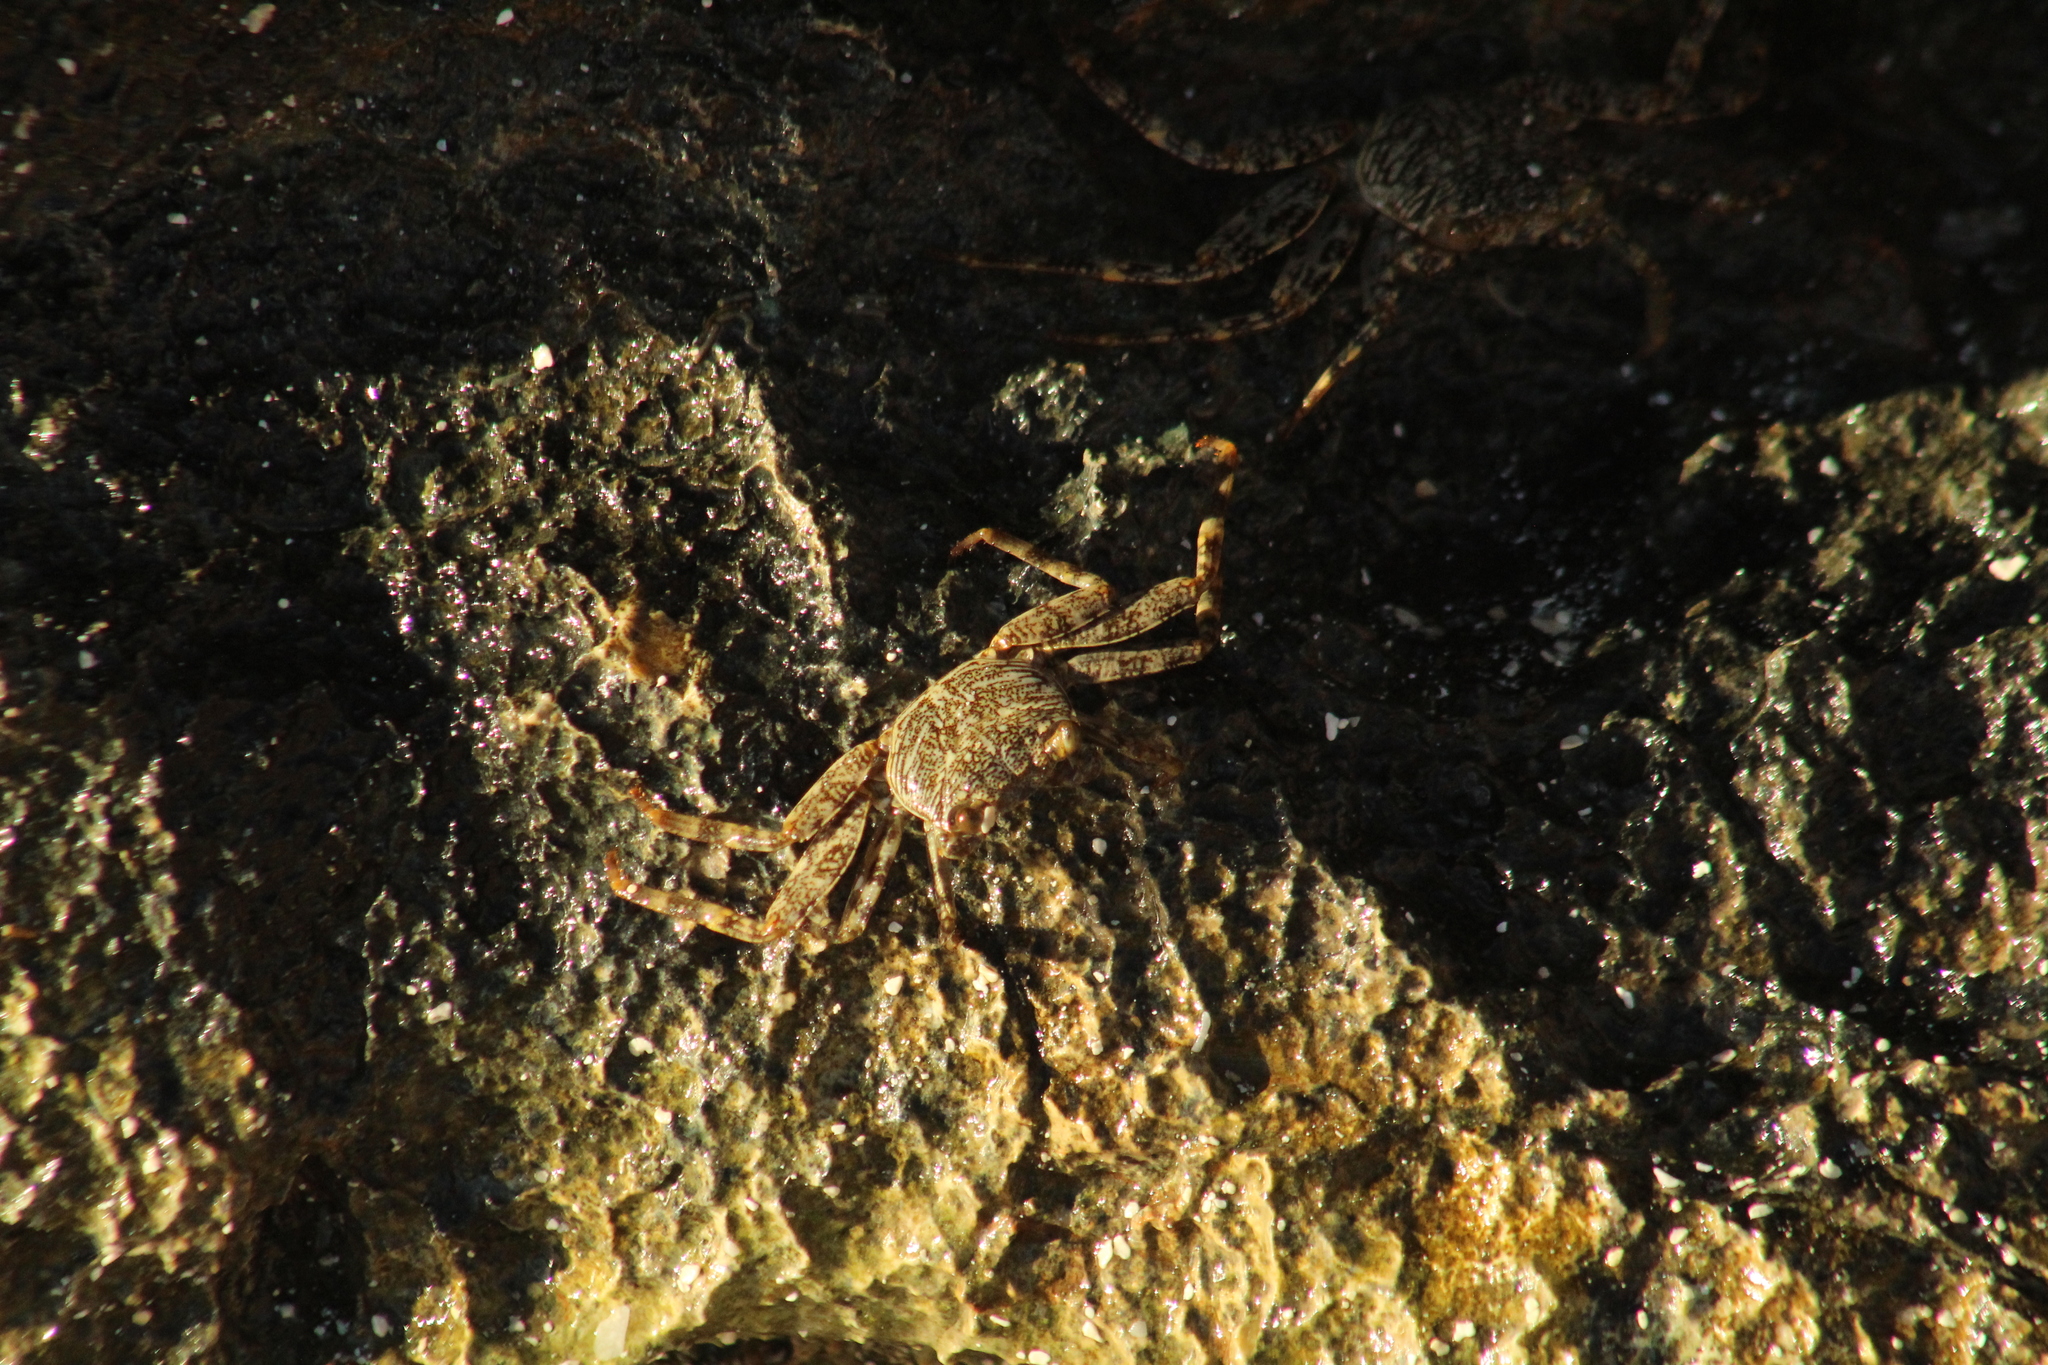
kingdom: Animalia
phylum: Arthropoda
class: Malacostraca
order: Decapoda
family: Grapsidae
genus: Grapsus
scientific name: Grapsus grapsus
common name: Sally lightfoot
